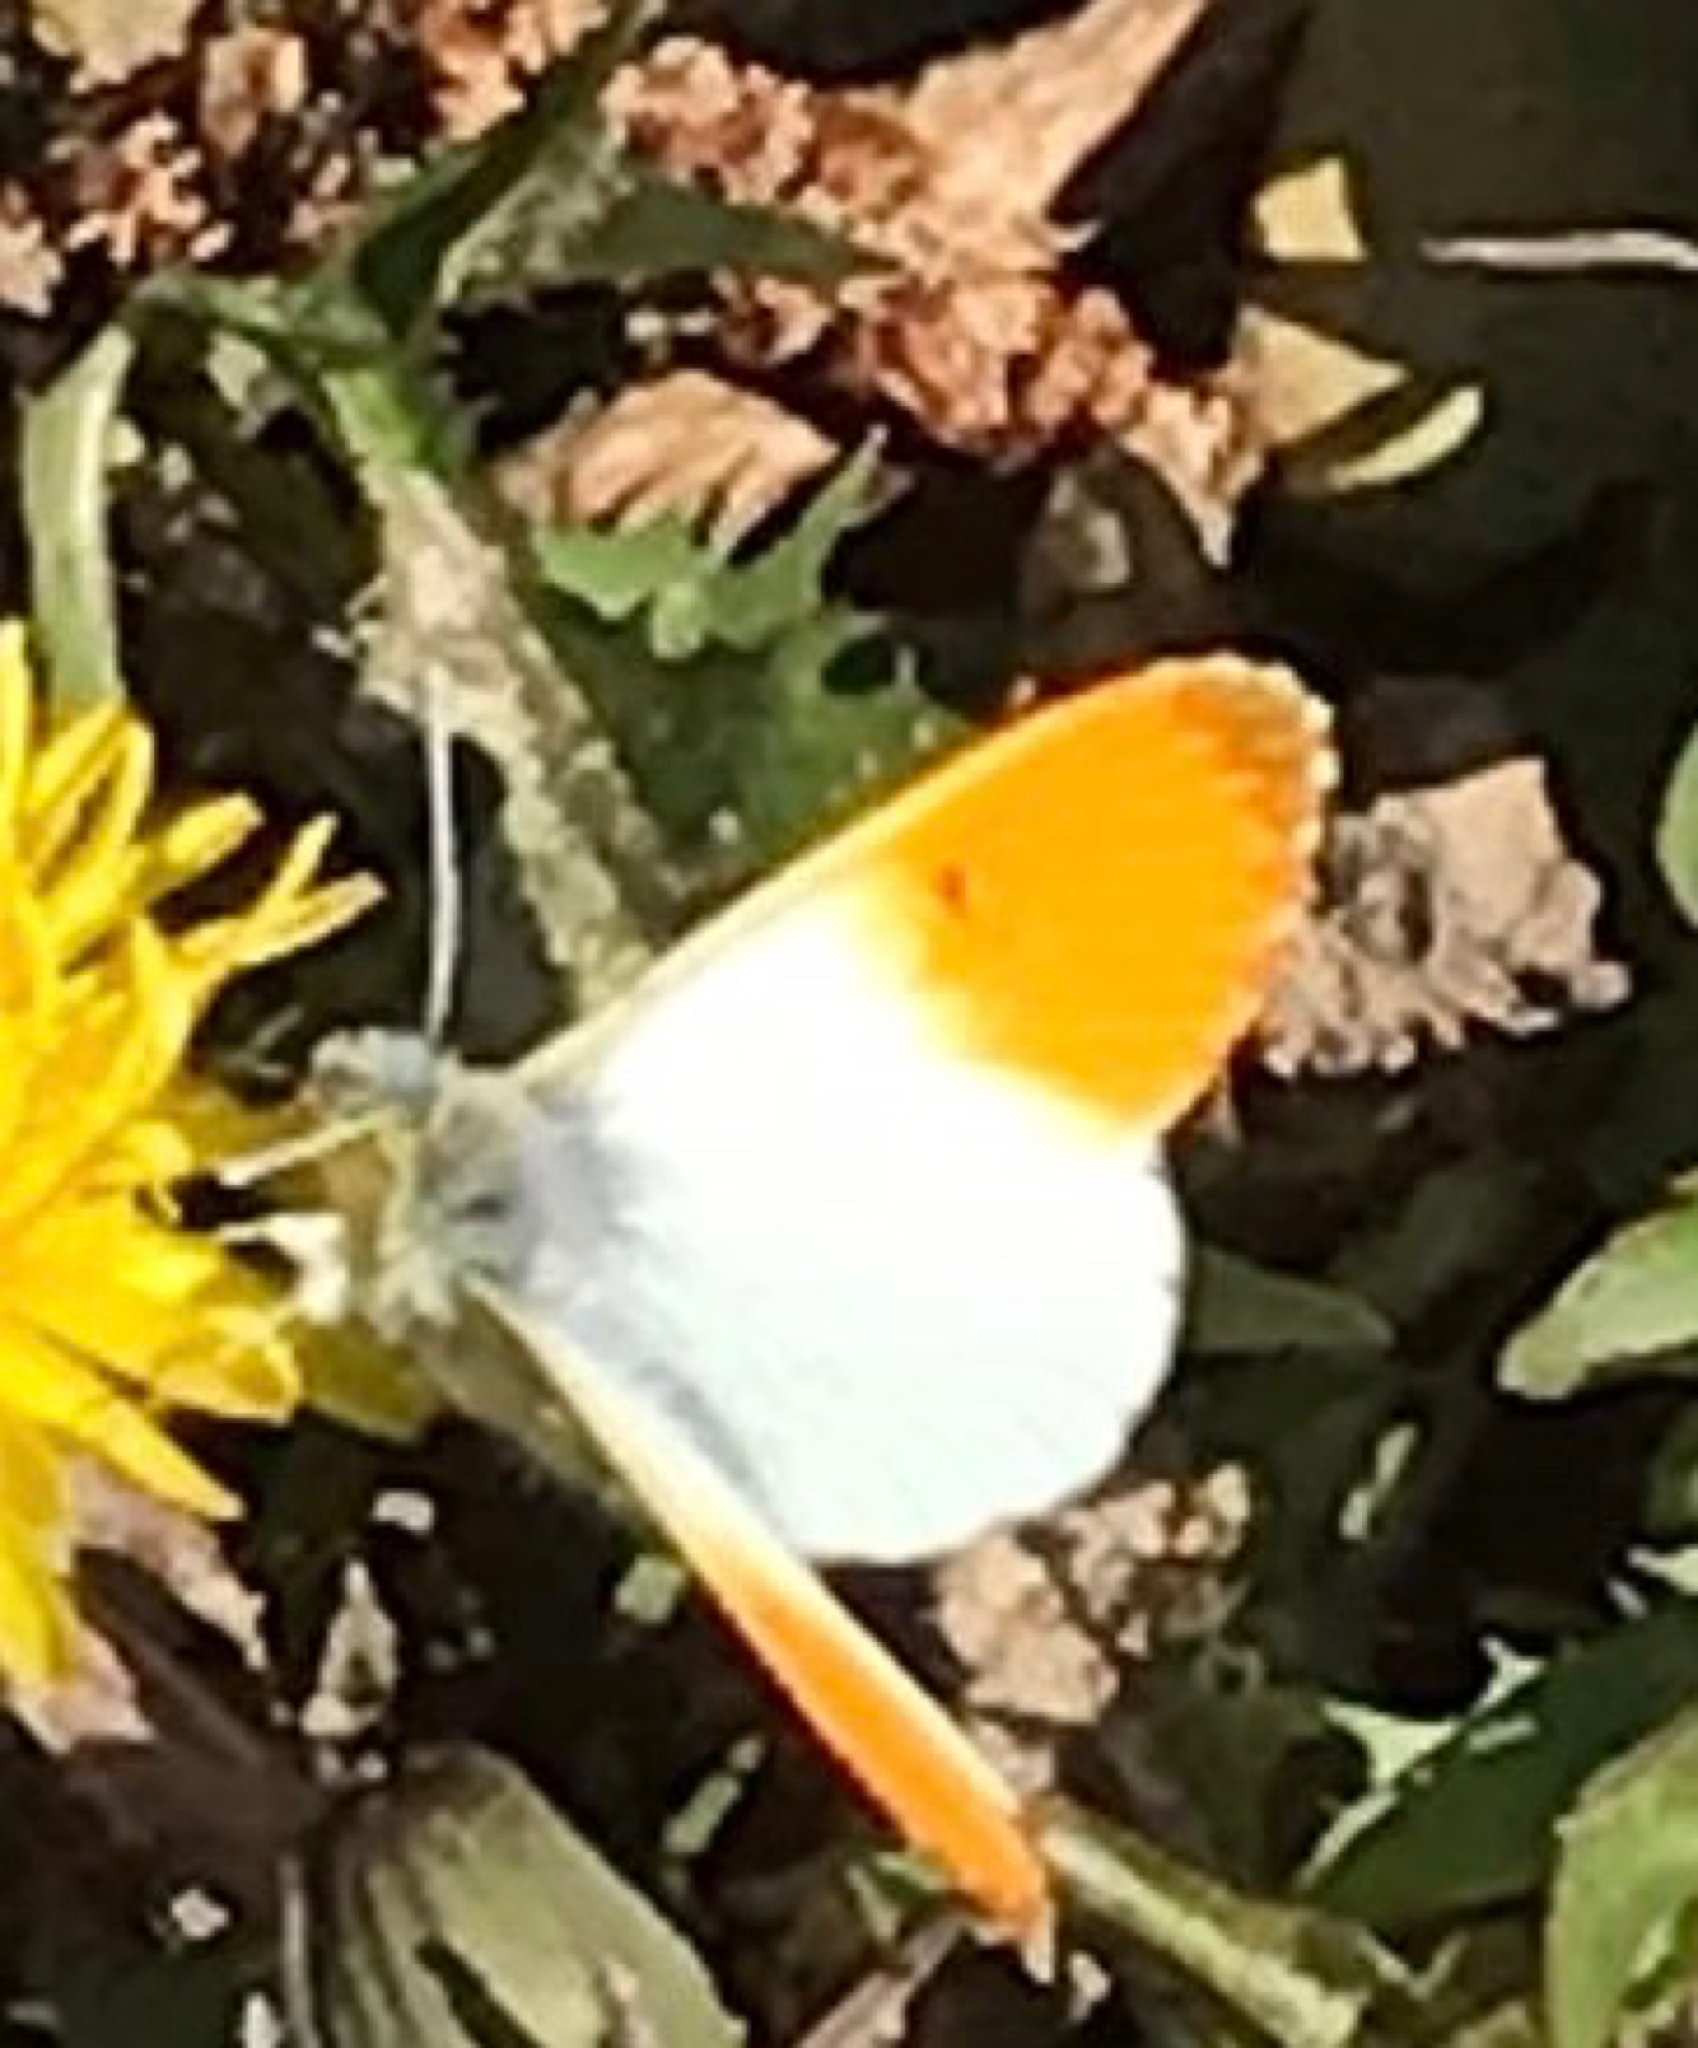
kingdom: Animalia
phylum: Arthropoda
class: Insecta
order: Lepidoptera
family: Pieridae
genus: Anthocharis
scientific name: Anthocharis cardamines
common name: Orange-tip
